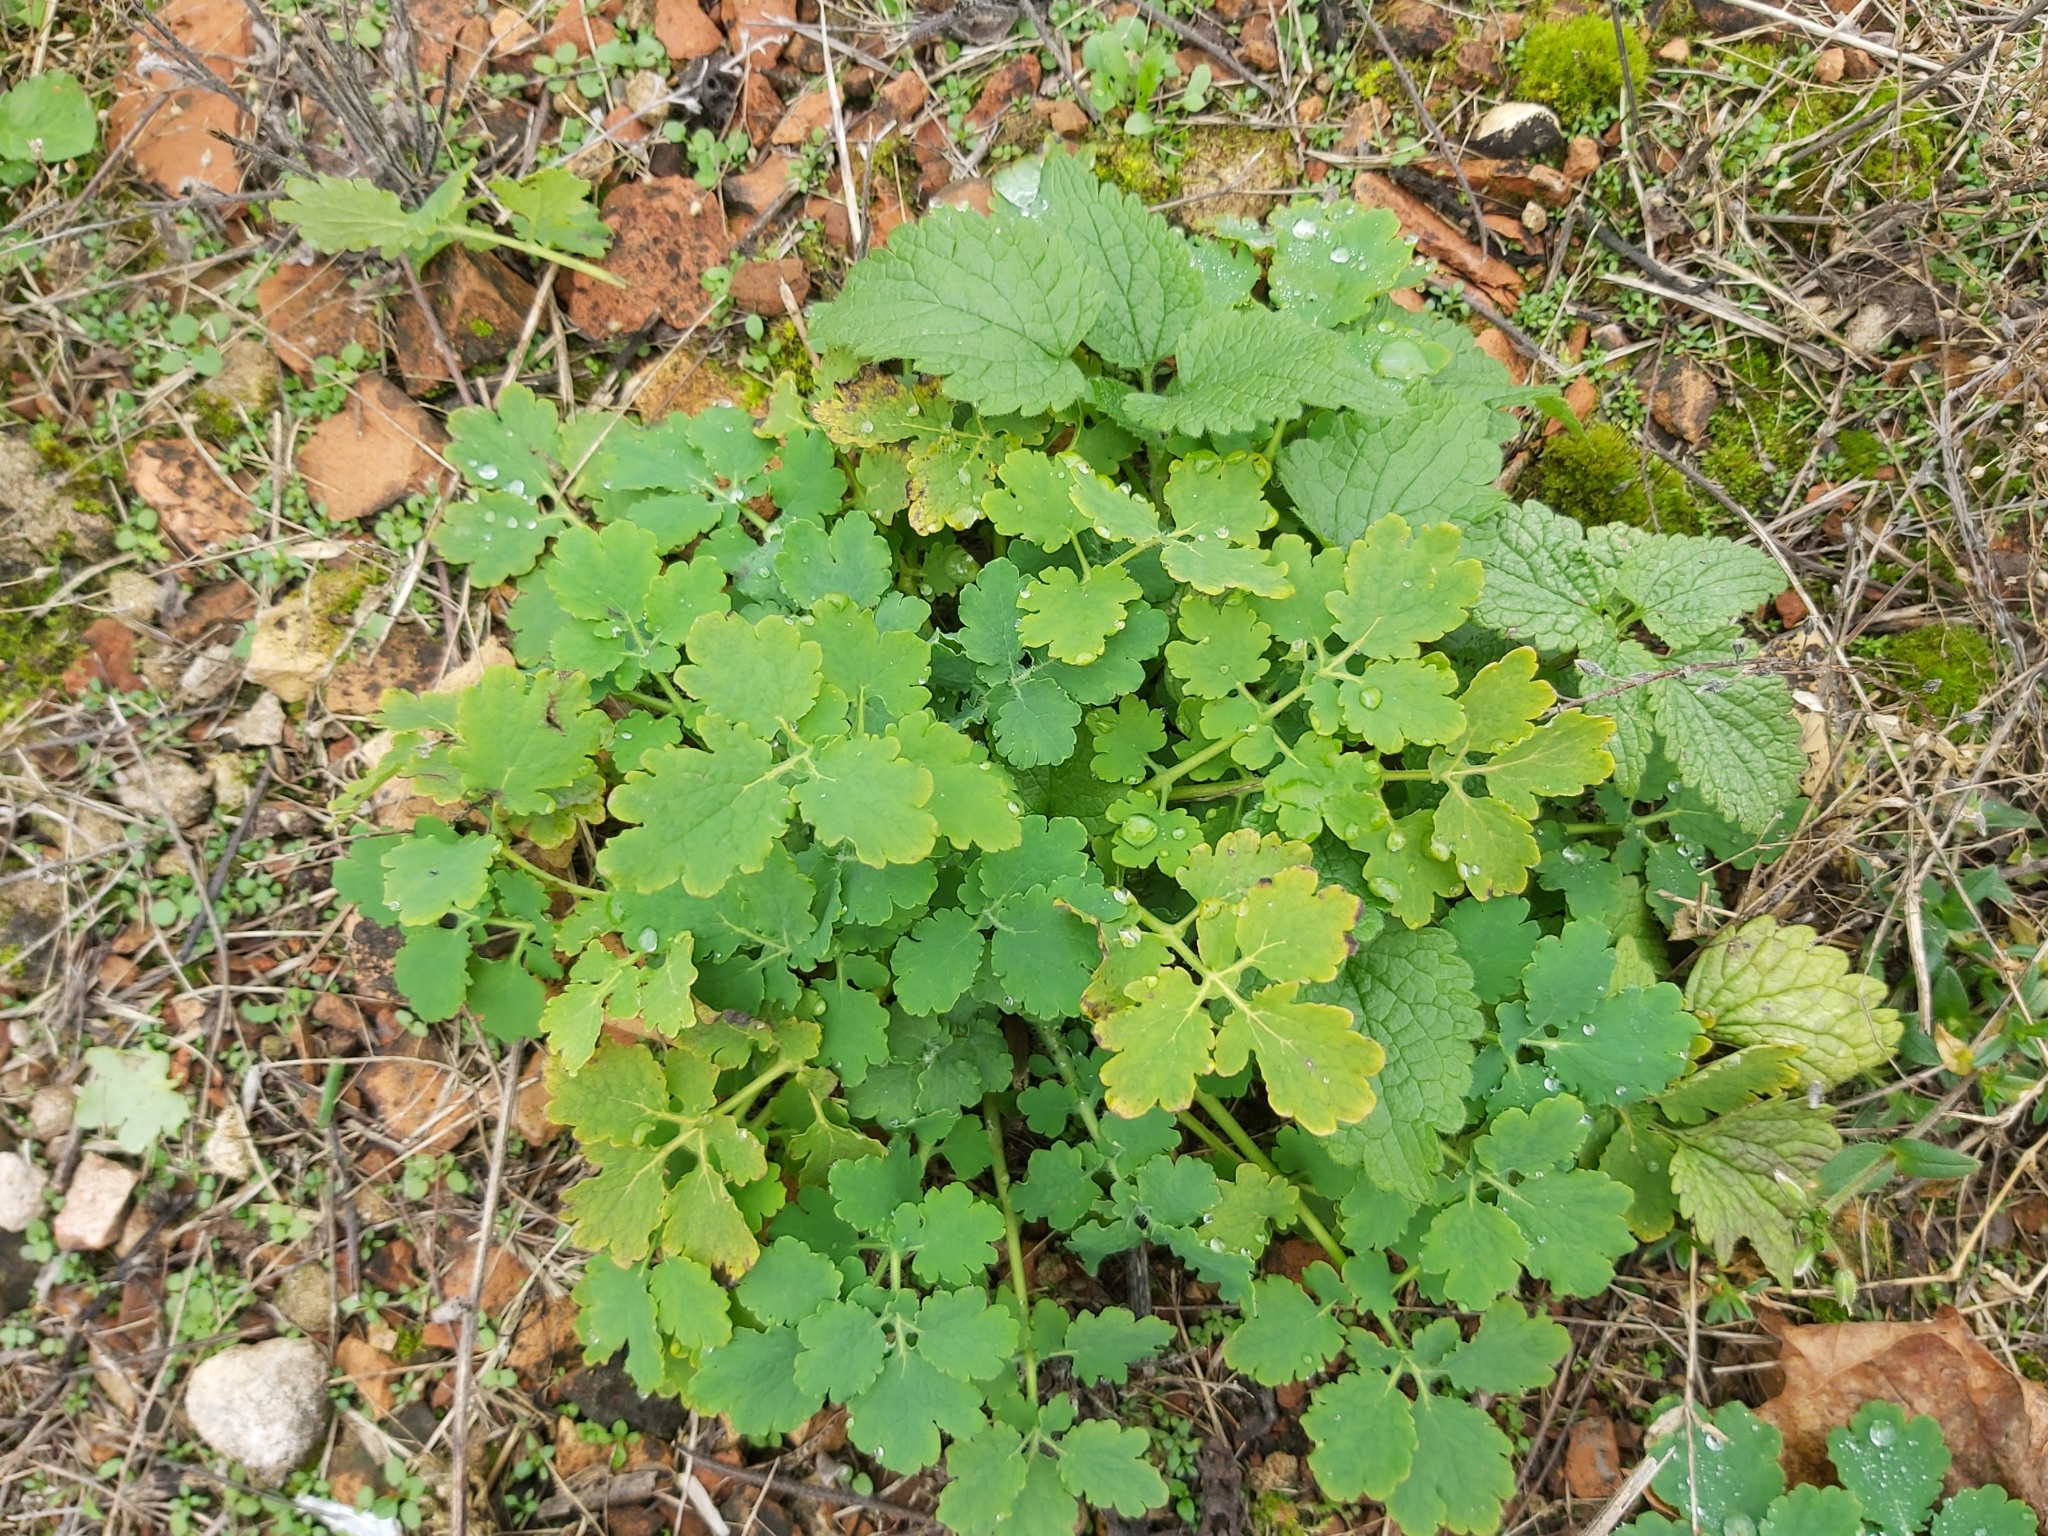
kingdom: Plantae
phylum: Tracheophyta
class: Magnoliopsida
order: Ranunculales
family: Papaveraceae
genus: Chelidonium
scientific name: Chelidonium majus
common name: Greater celandine
